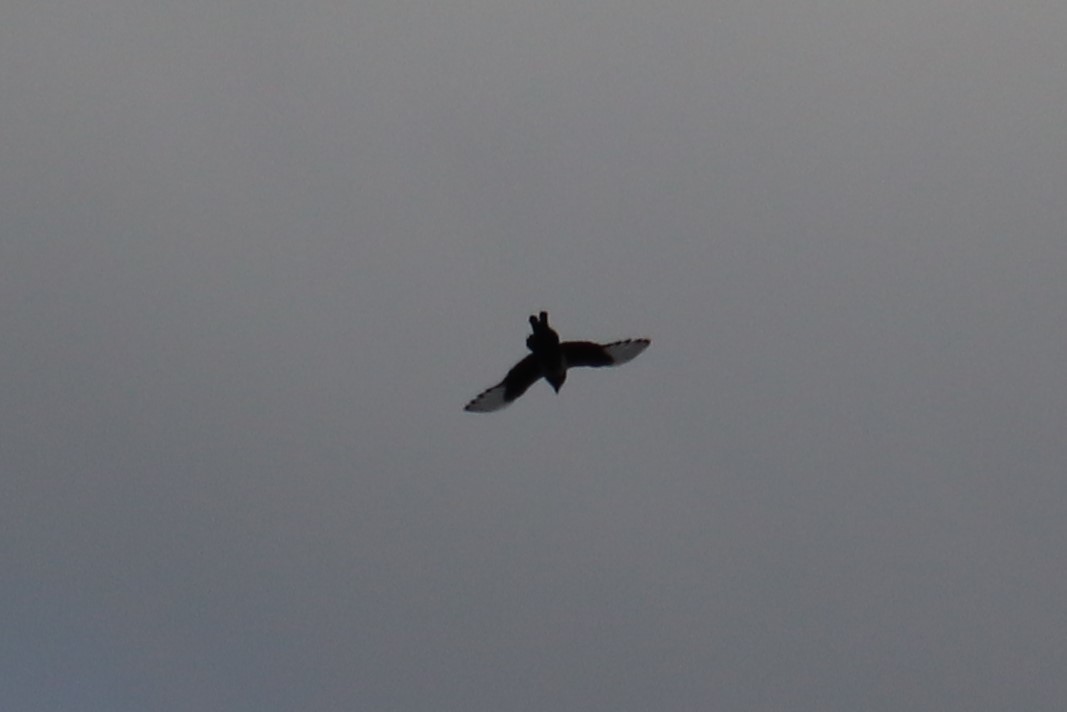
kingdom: Animalia
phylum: Chordata
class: Aves
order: Passeriformes
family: Corvidae
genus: Pica
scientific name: Pica hudsonia
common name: Black-billed magpie
